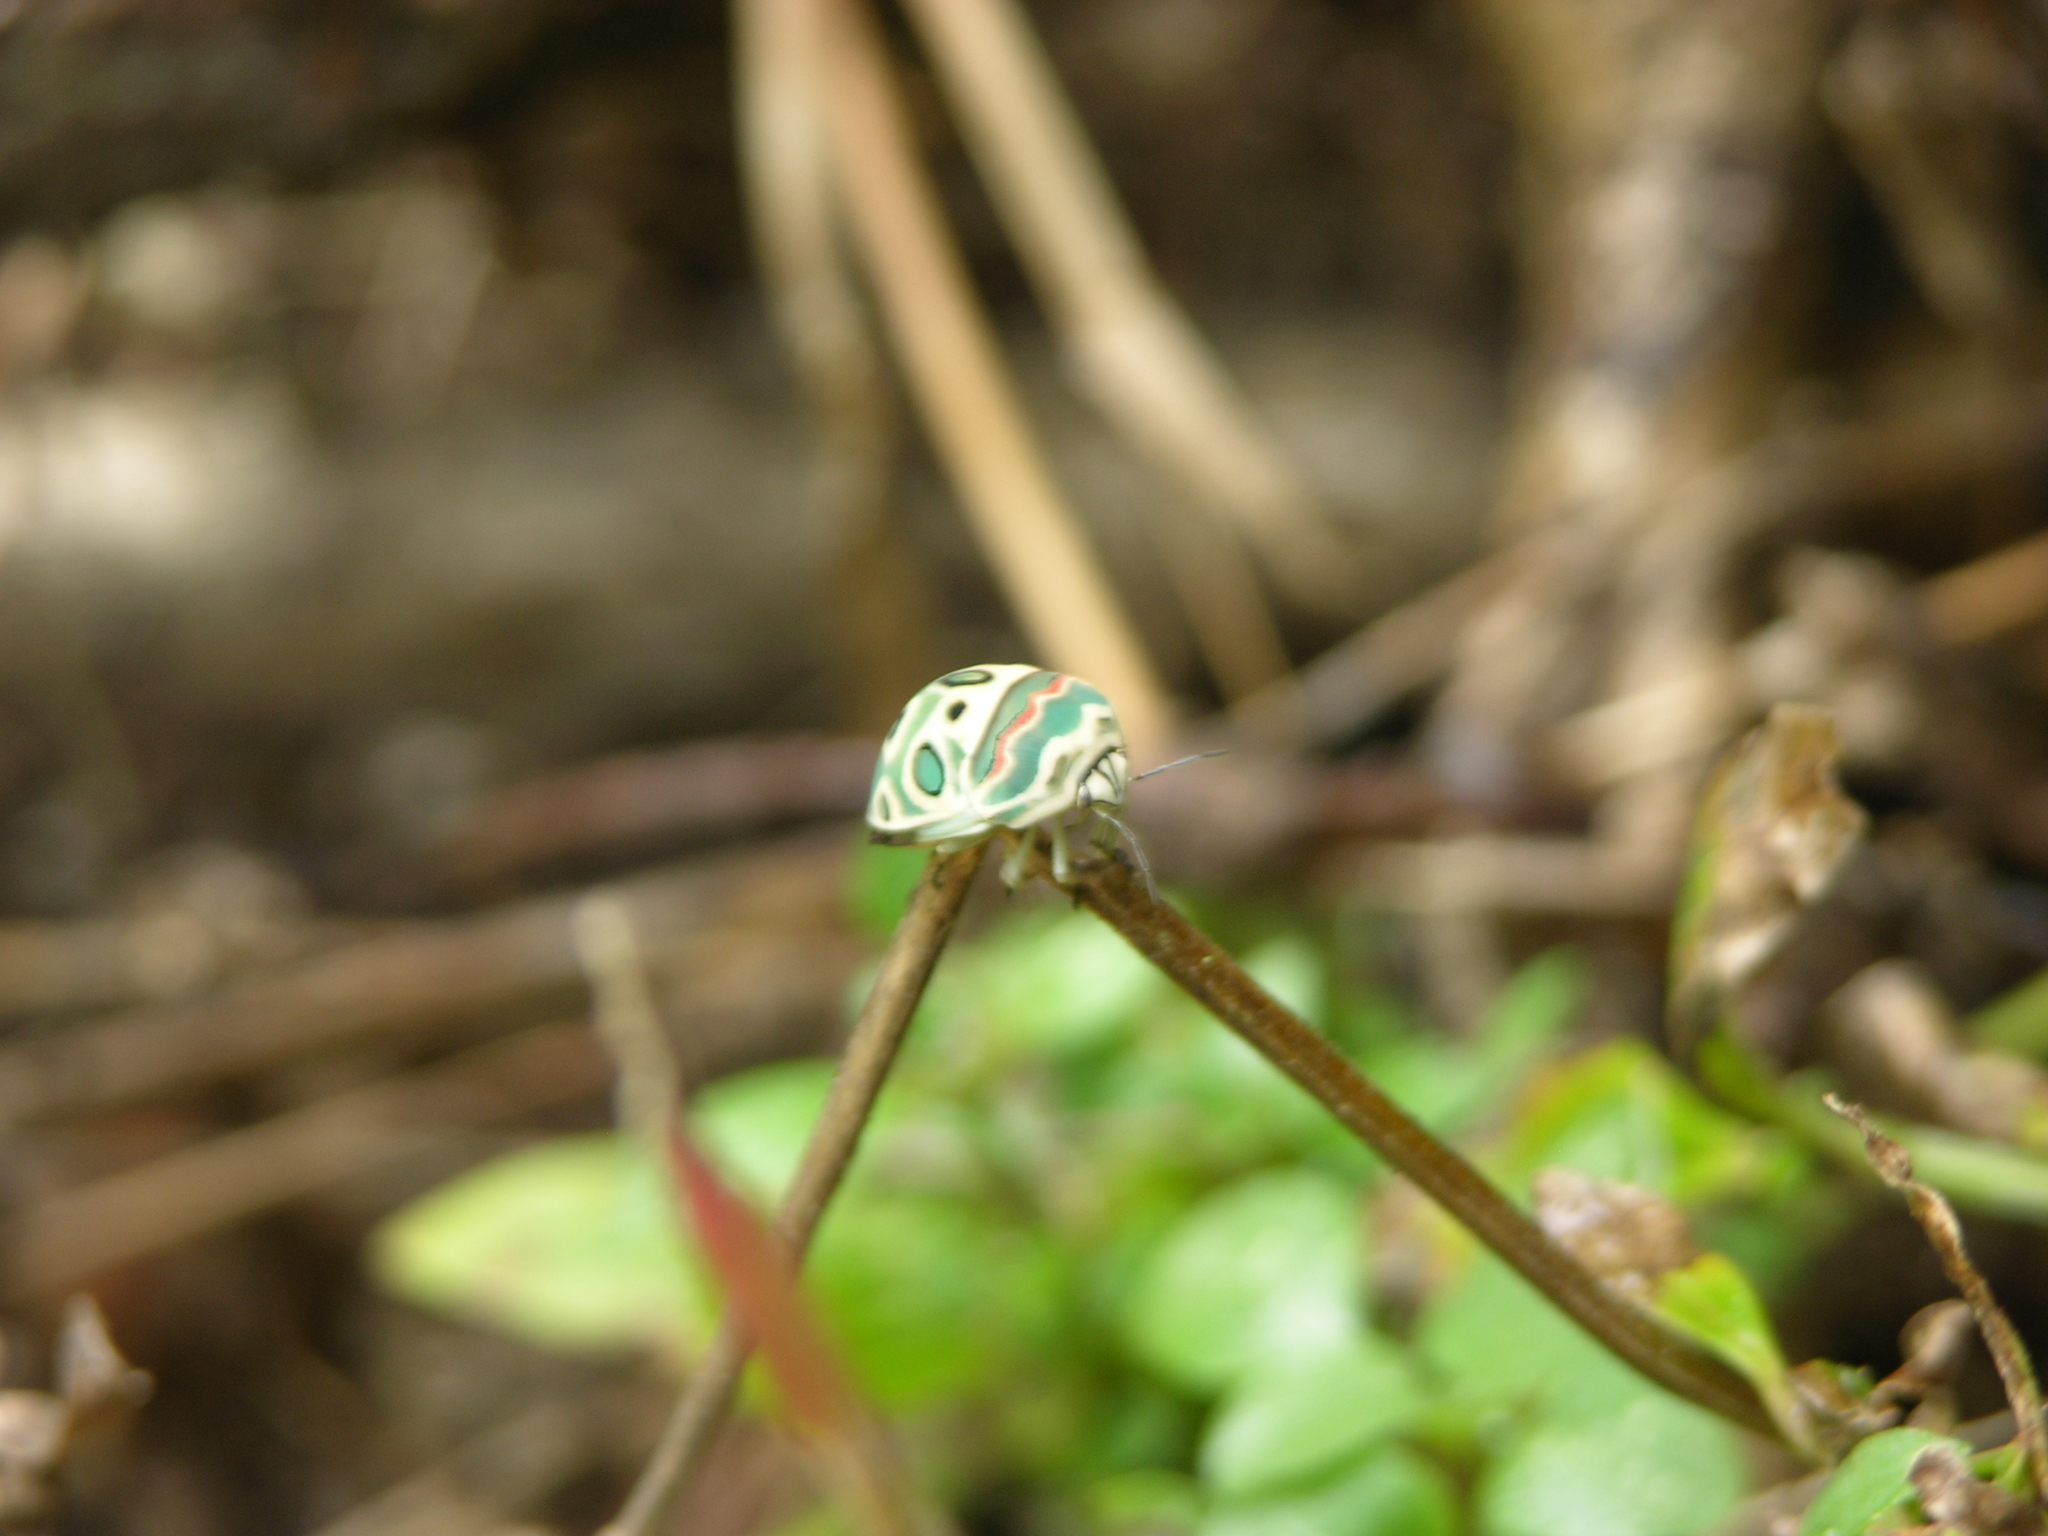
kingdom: Animalia
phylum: Arthropoda
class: Insecta
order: Hemiptera
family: Scutelleridae
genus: Sphaerocoris
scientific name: Sphaerocoris annulus
